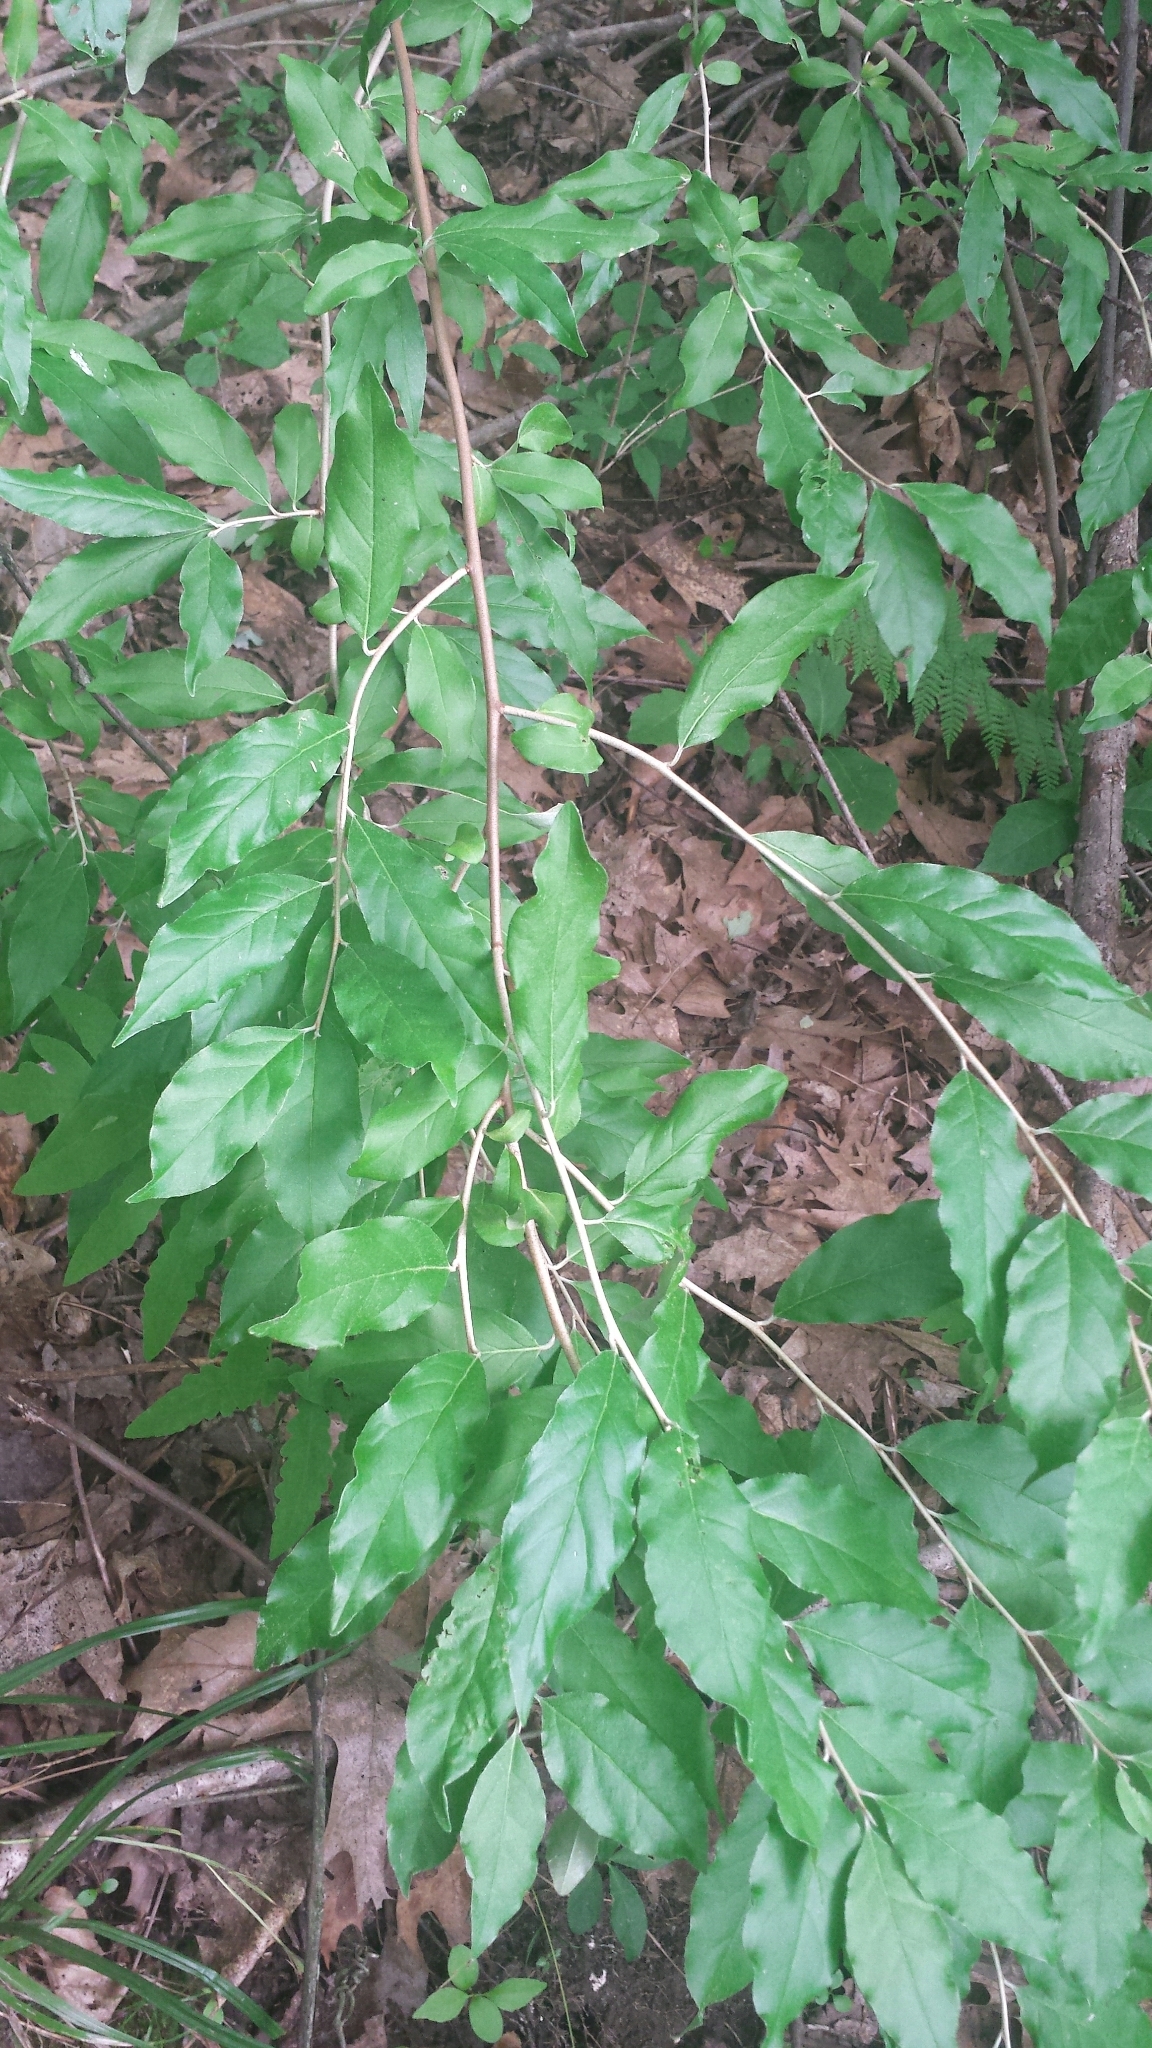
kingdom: Plantae
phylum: Tracheophyta
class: Magnoliopsida
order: Rosales
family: Elaeagnaceae
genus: Elaeagnus
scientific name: Elaeagnus umbellata
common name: Autumn olive
